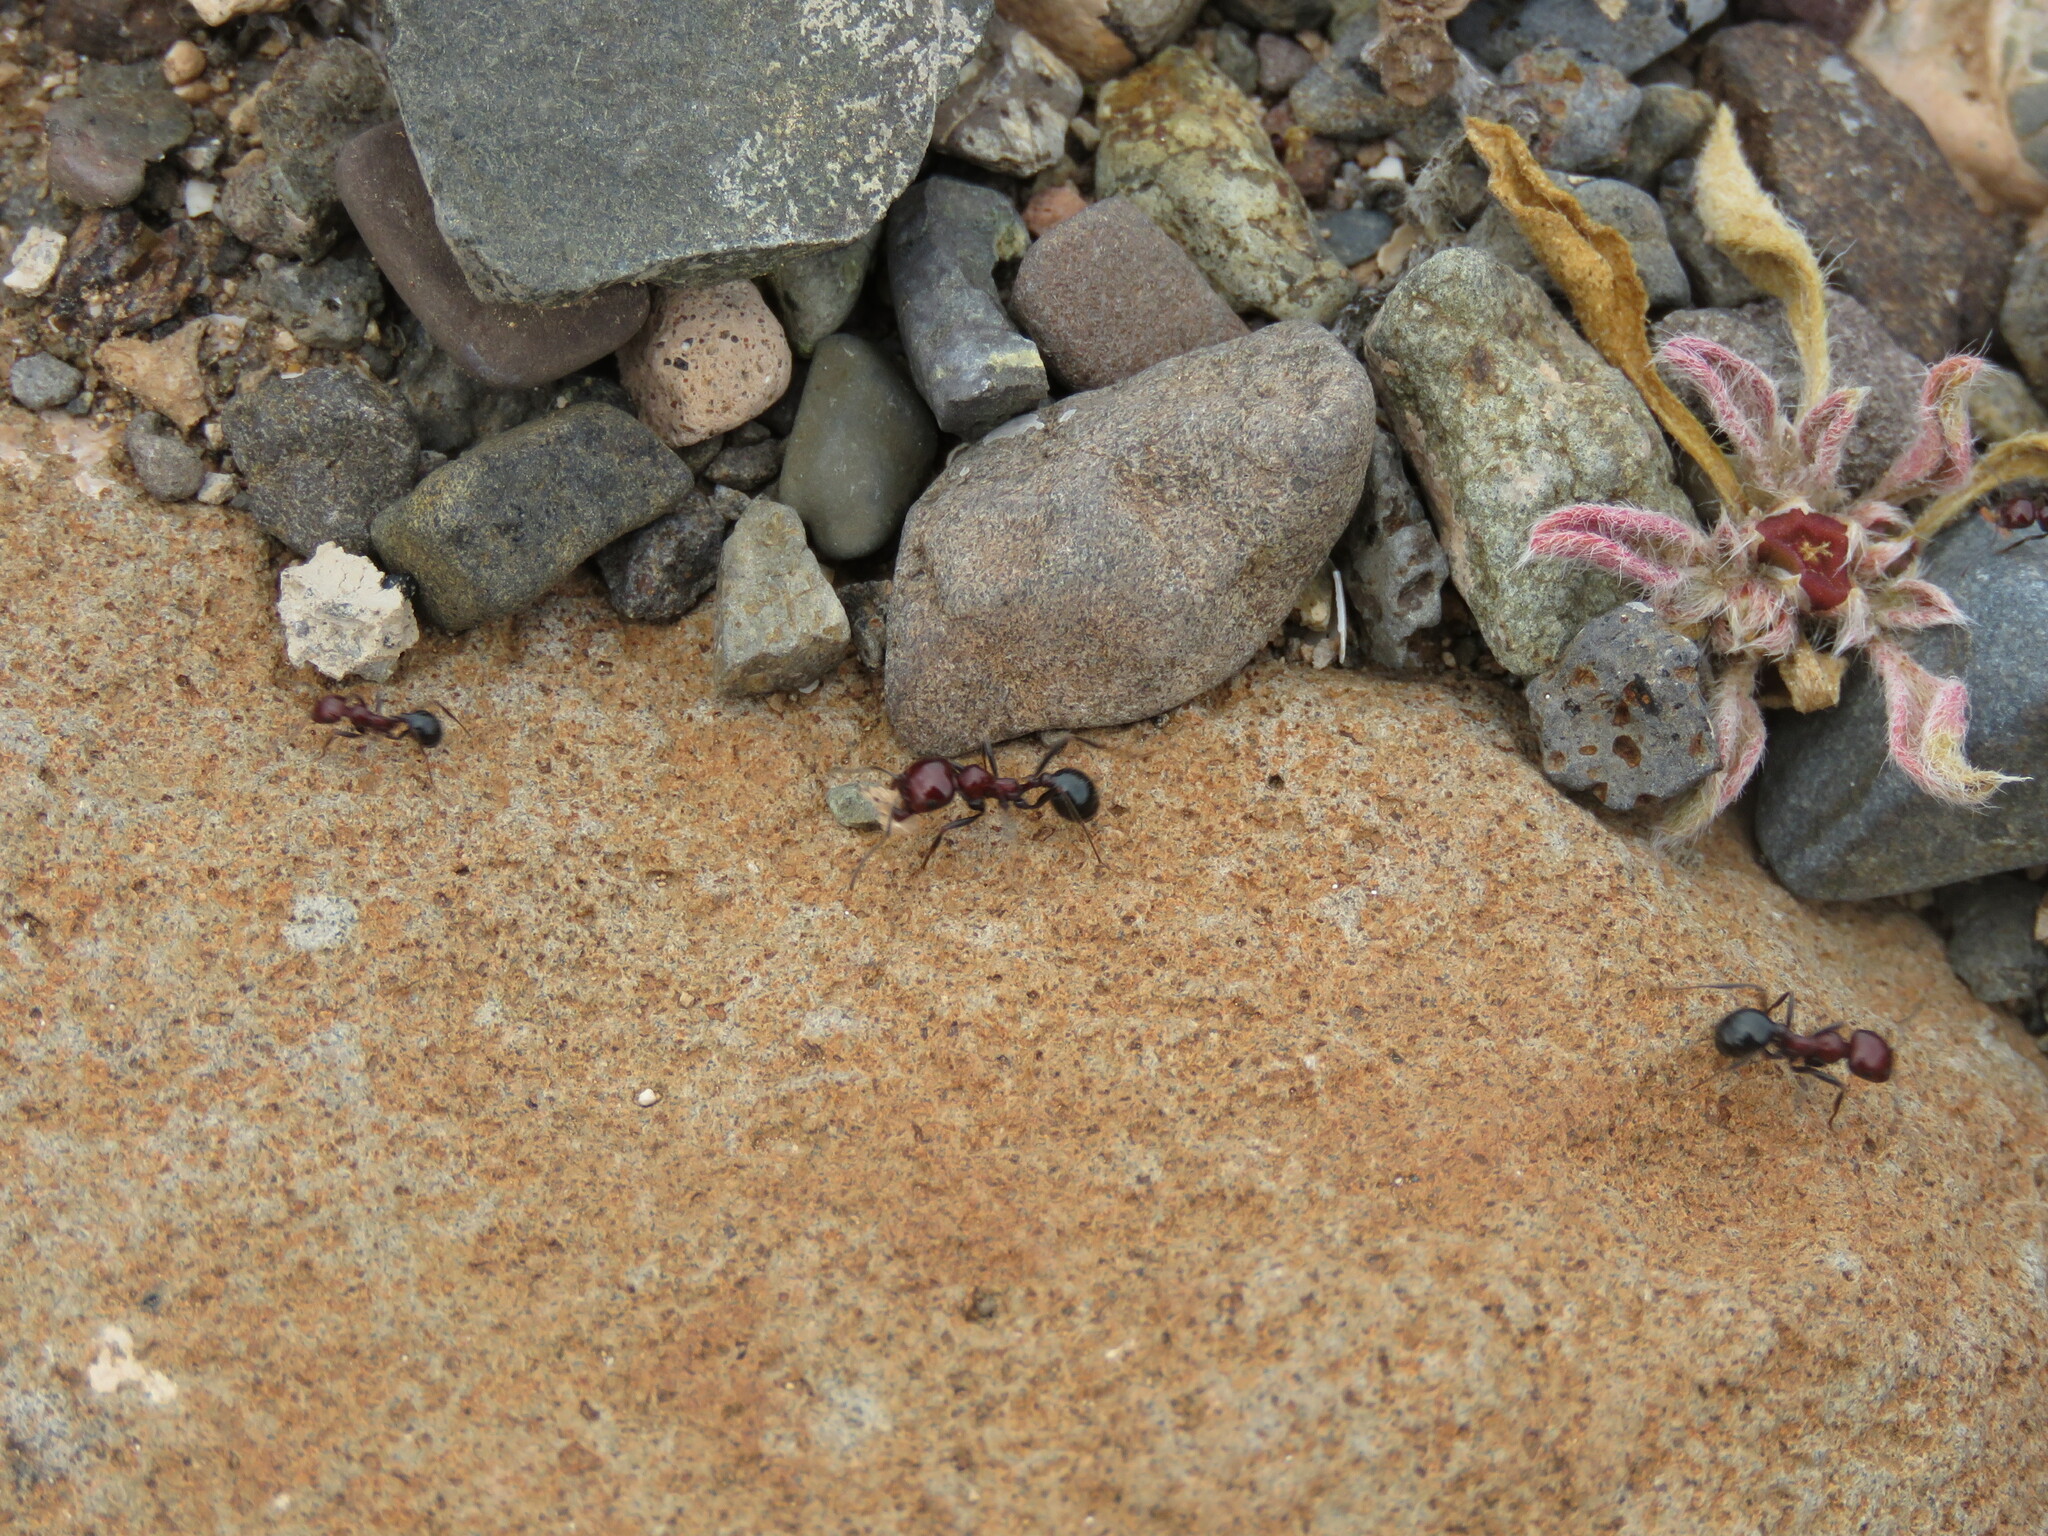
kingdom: Animalia
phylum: Arthropoda
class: Insecta
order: Hymenoptera
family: Formicidae
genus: Messor
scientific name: Messor minor
